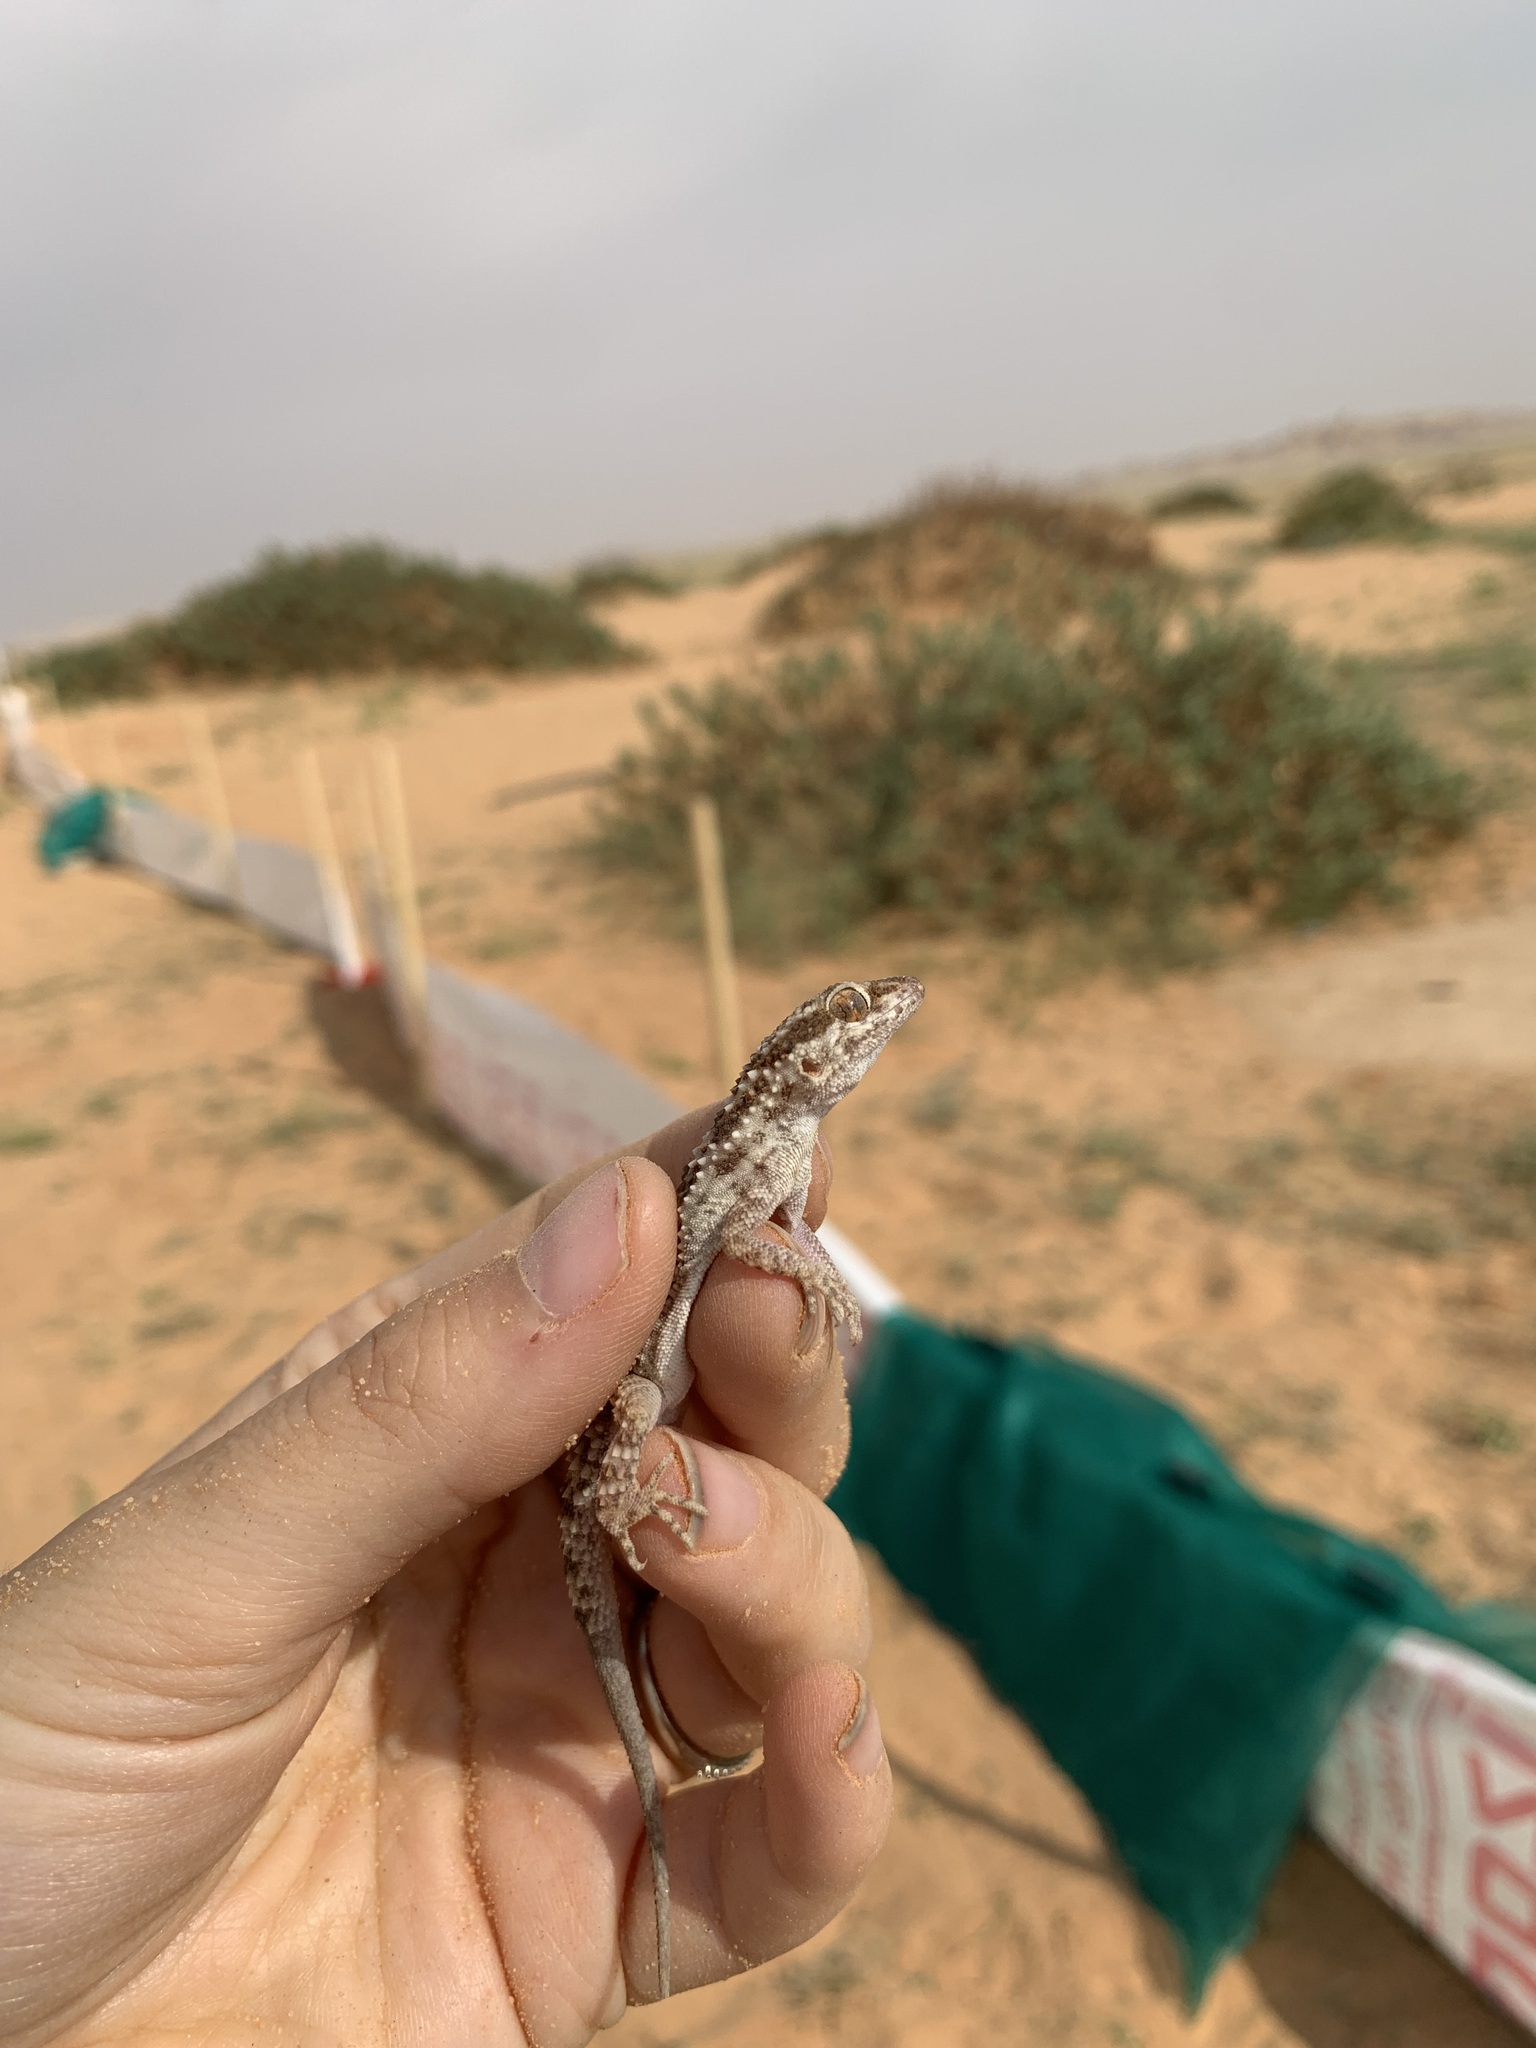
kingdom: Animalia
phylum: Chordata
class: Squamata
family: Gekkonidae
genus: Bunopus
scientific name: Bunopus tuberculatus
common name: Southern tuberculated gecko
